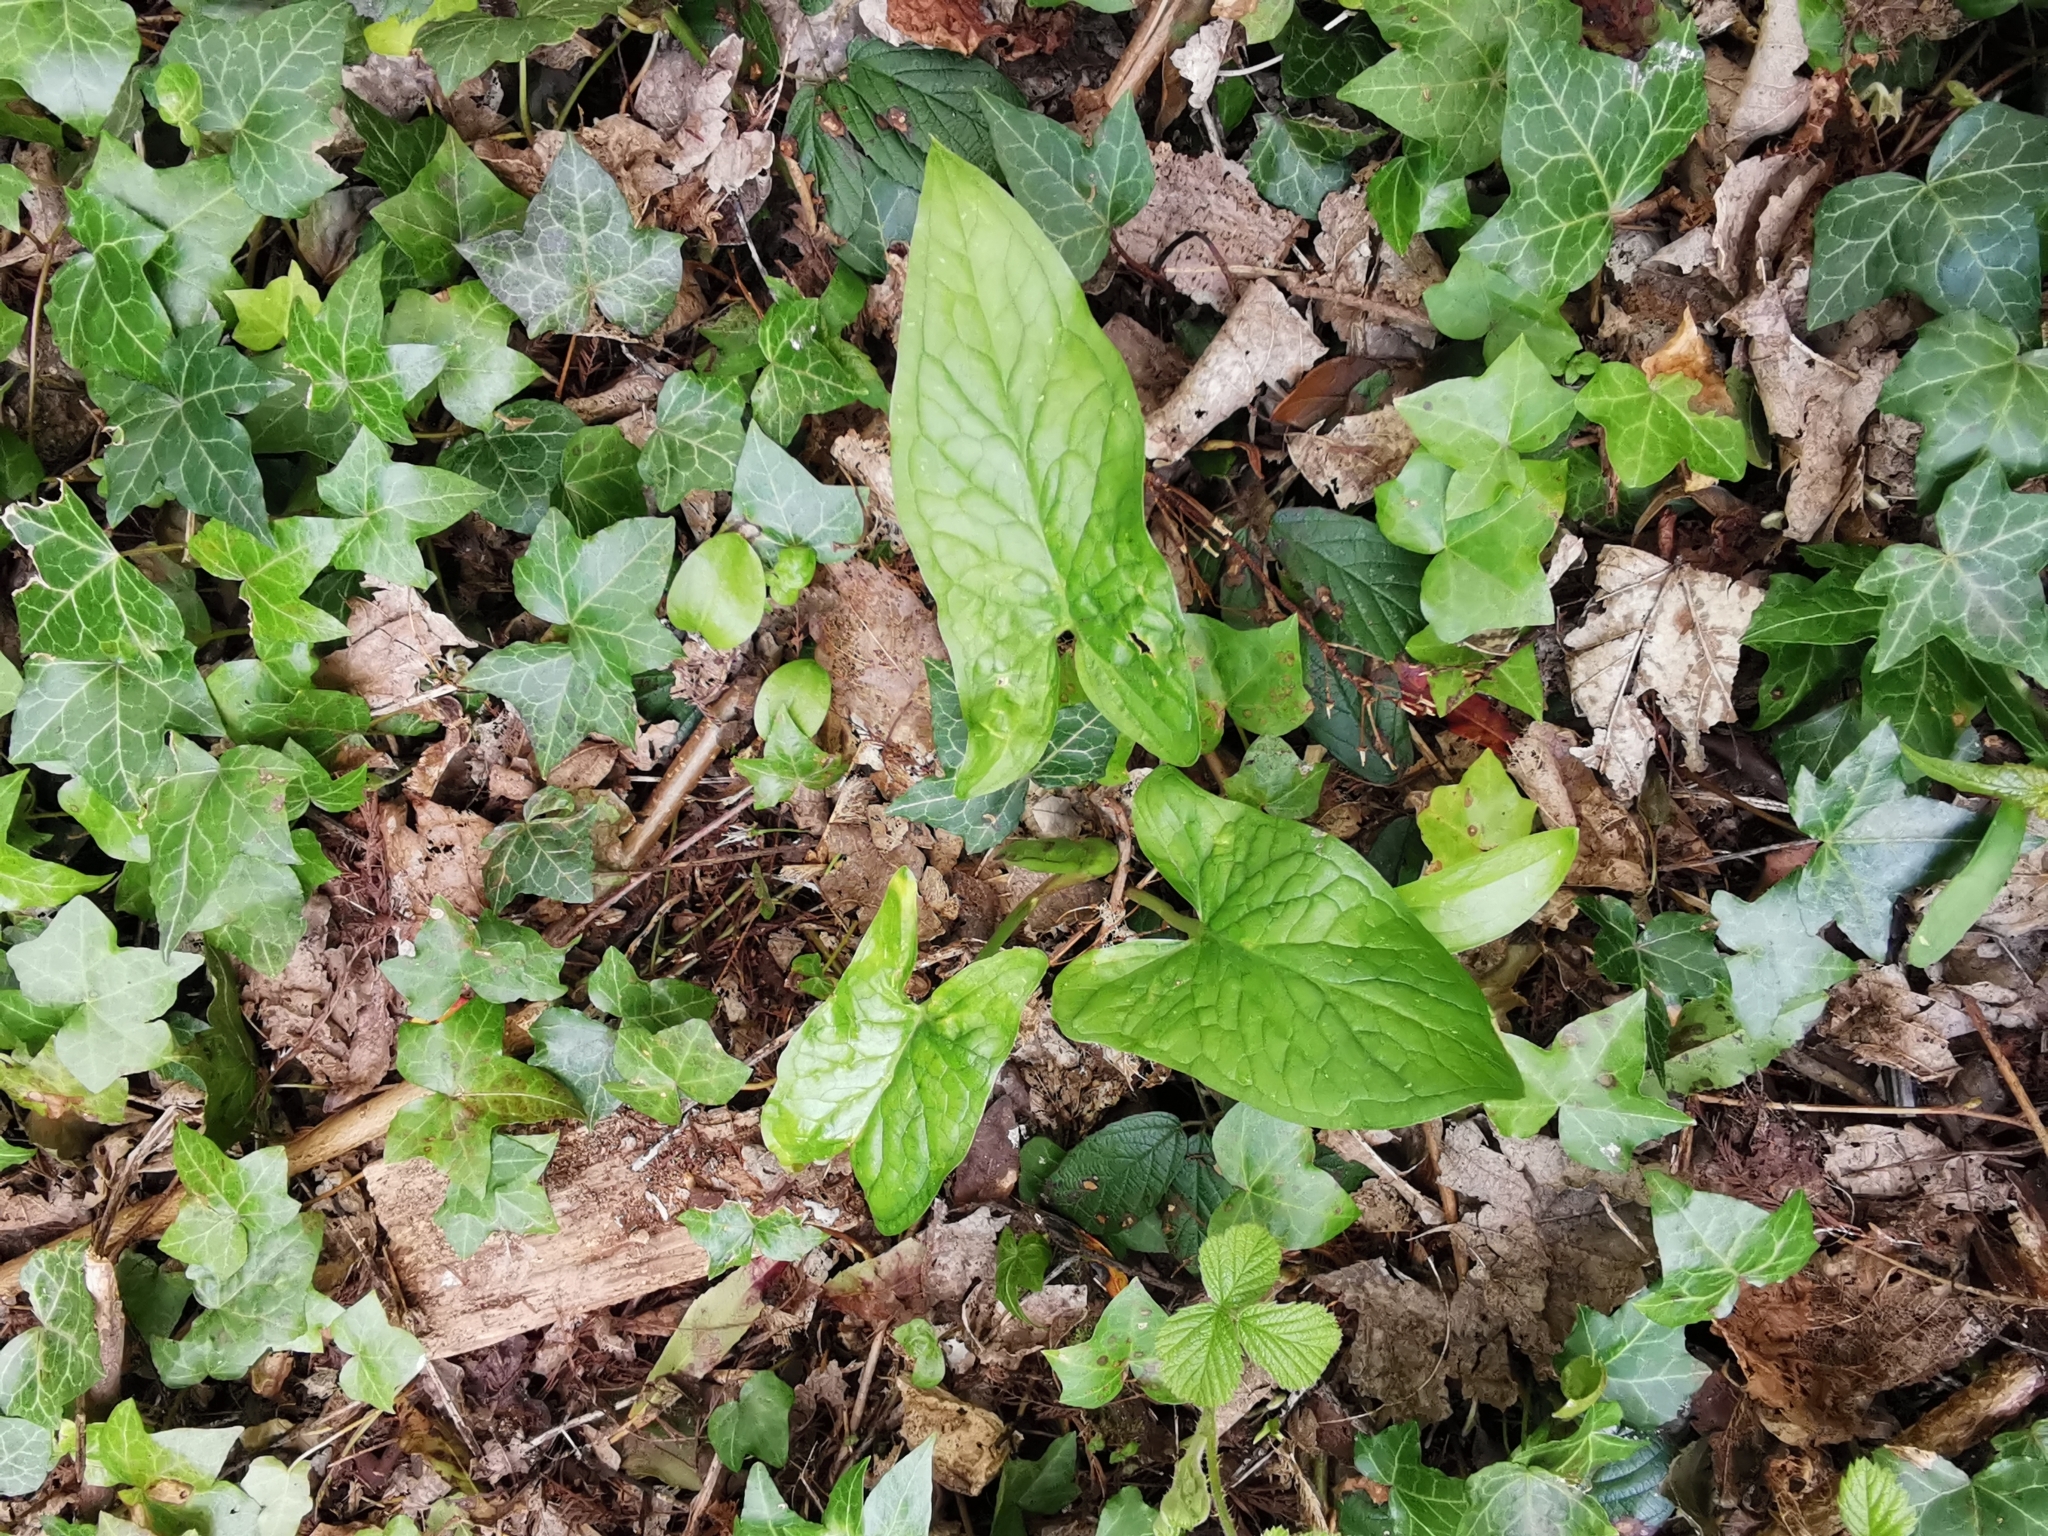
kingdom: Plantae
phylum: Tracheophyta
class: Liliopsida
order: Alismatales
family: Araceae
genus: Arum
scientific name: Arum maculatum
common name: Lords-and-ladies
